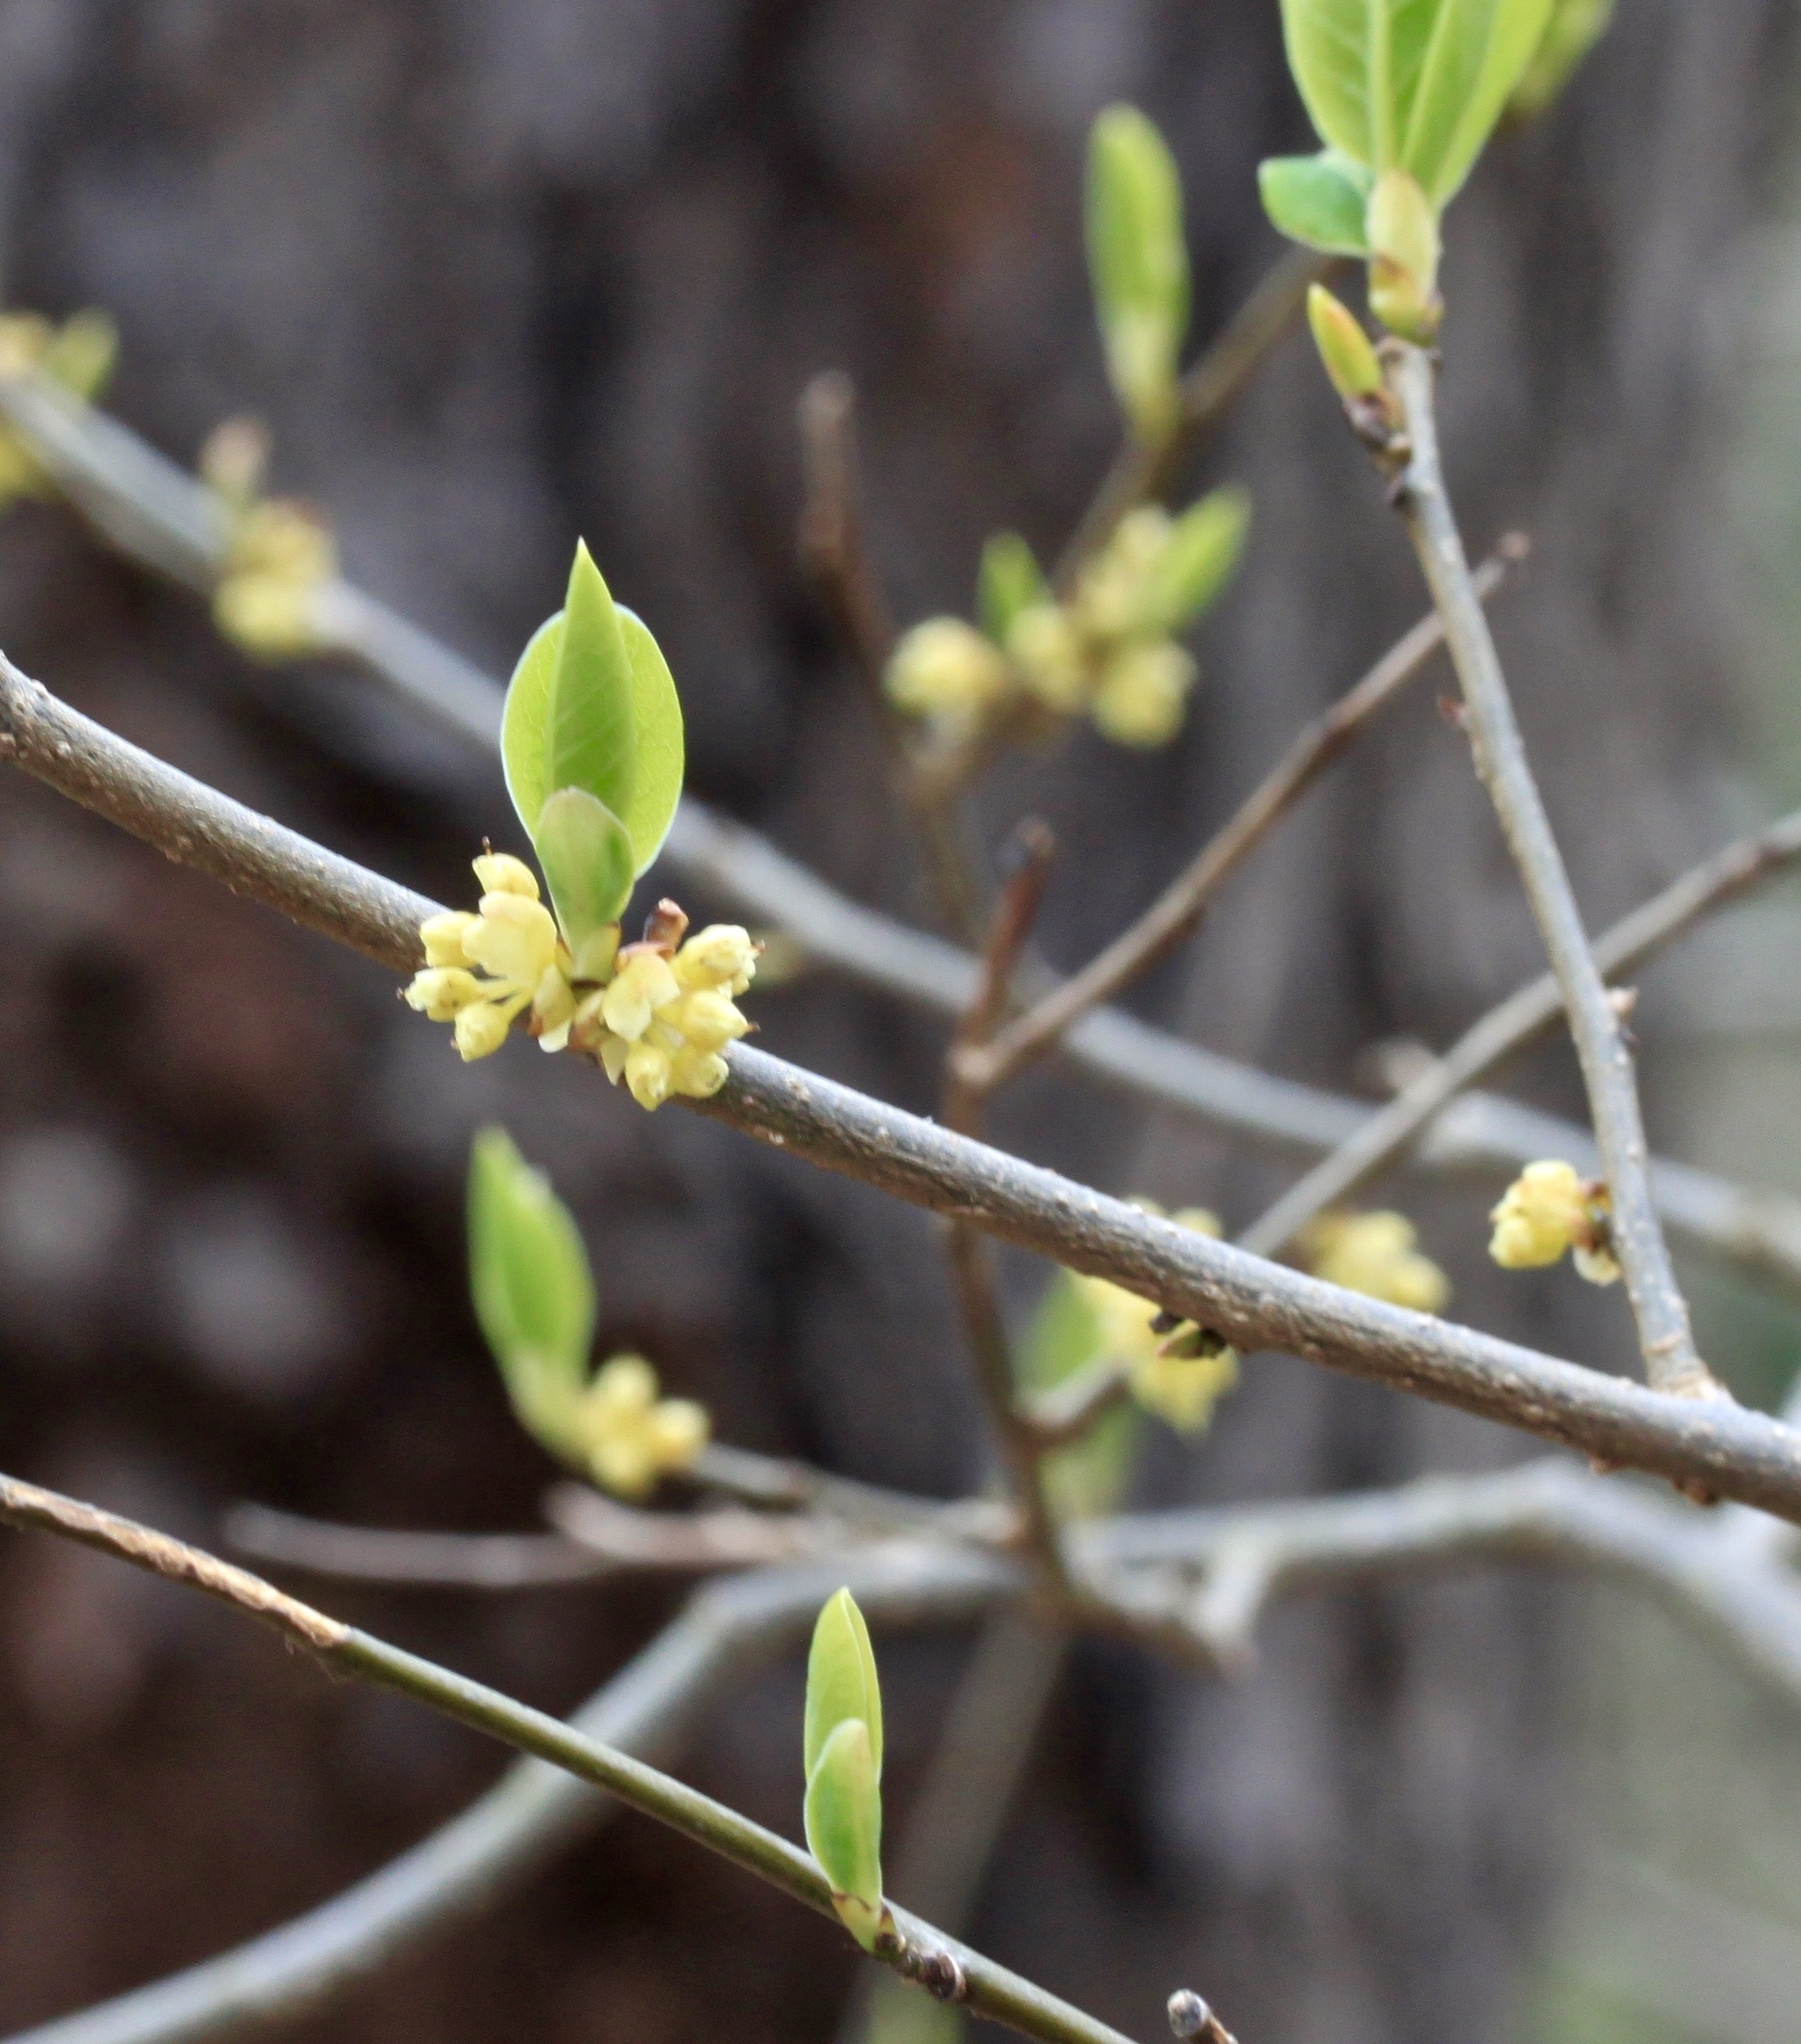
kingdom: Plantae
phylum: Tracheophyta
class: Magnoliopsida
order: Laurales
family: Lauraceae
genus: Lindera
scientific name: Lindera benzoin
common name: Spicebush
